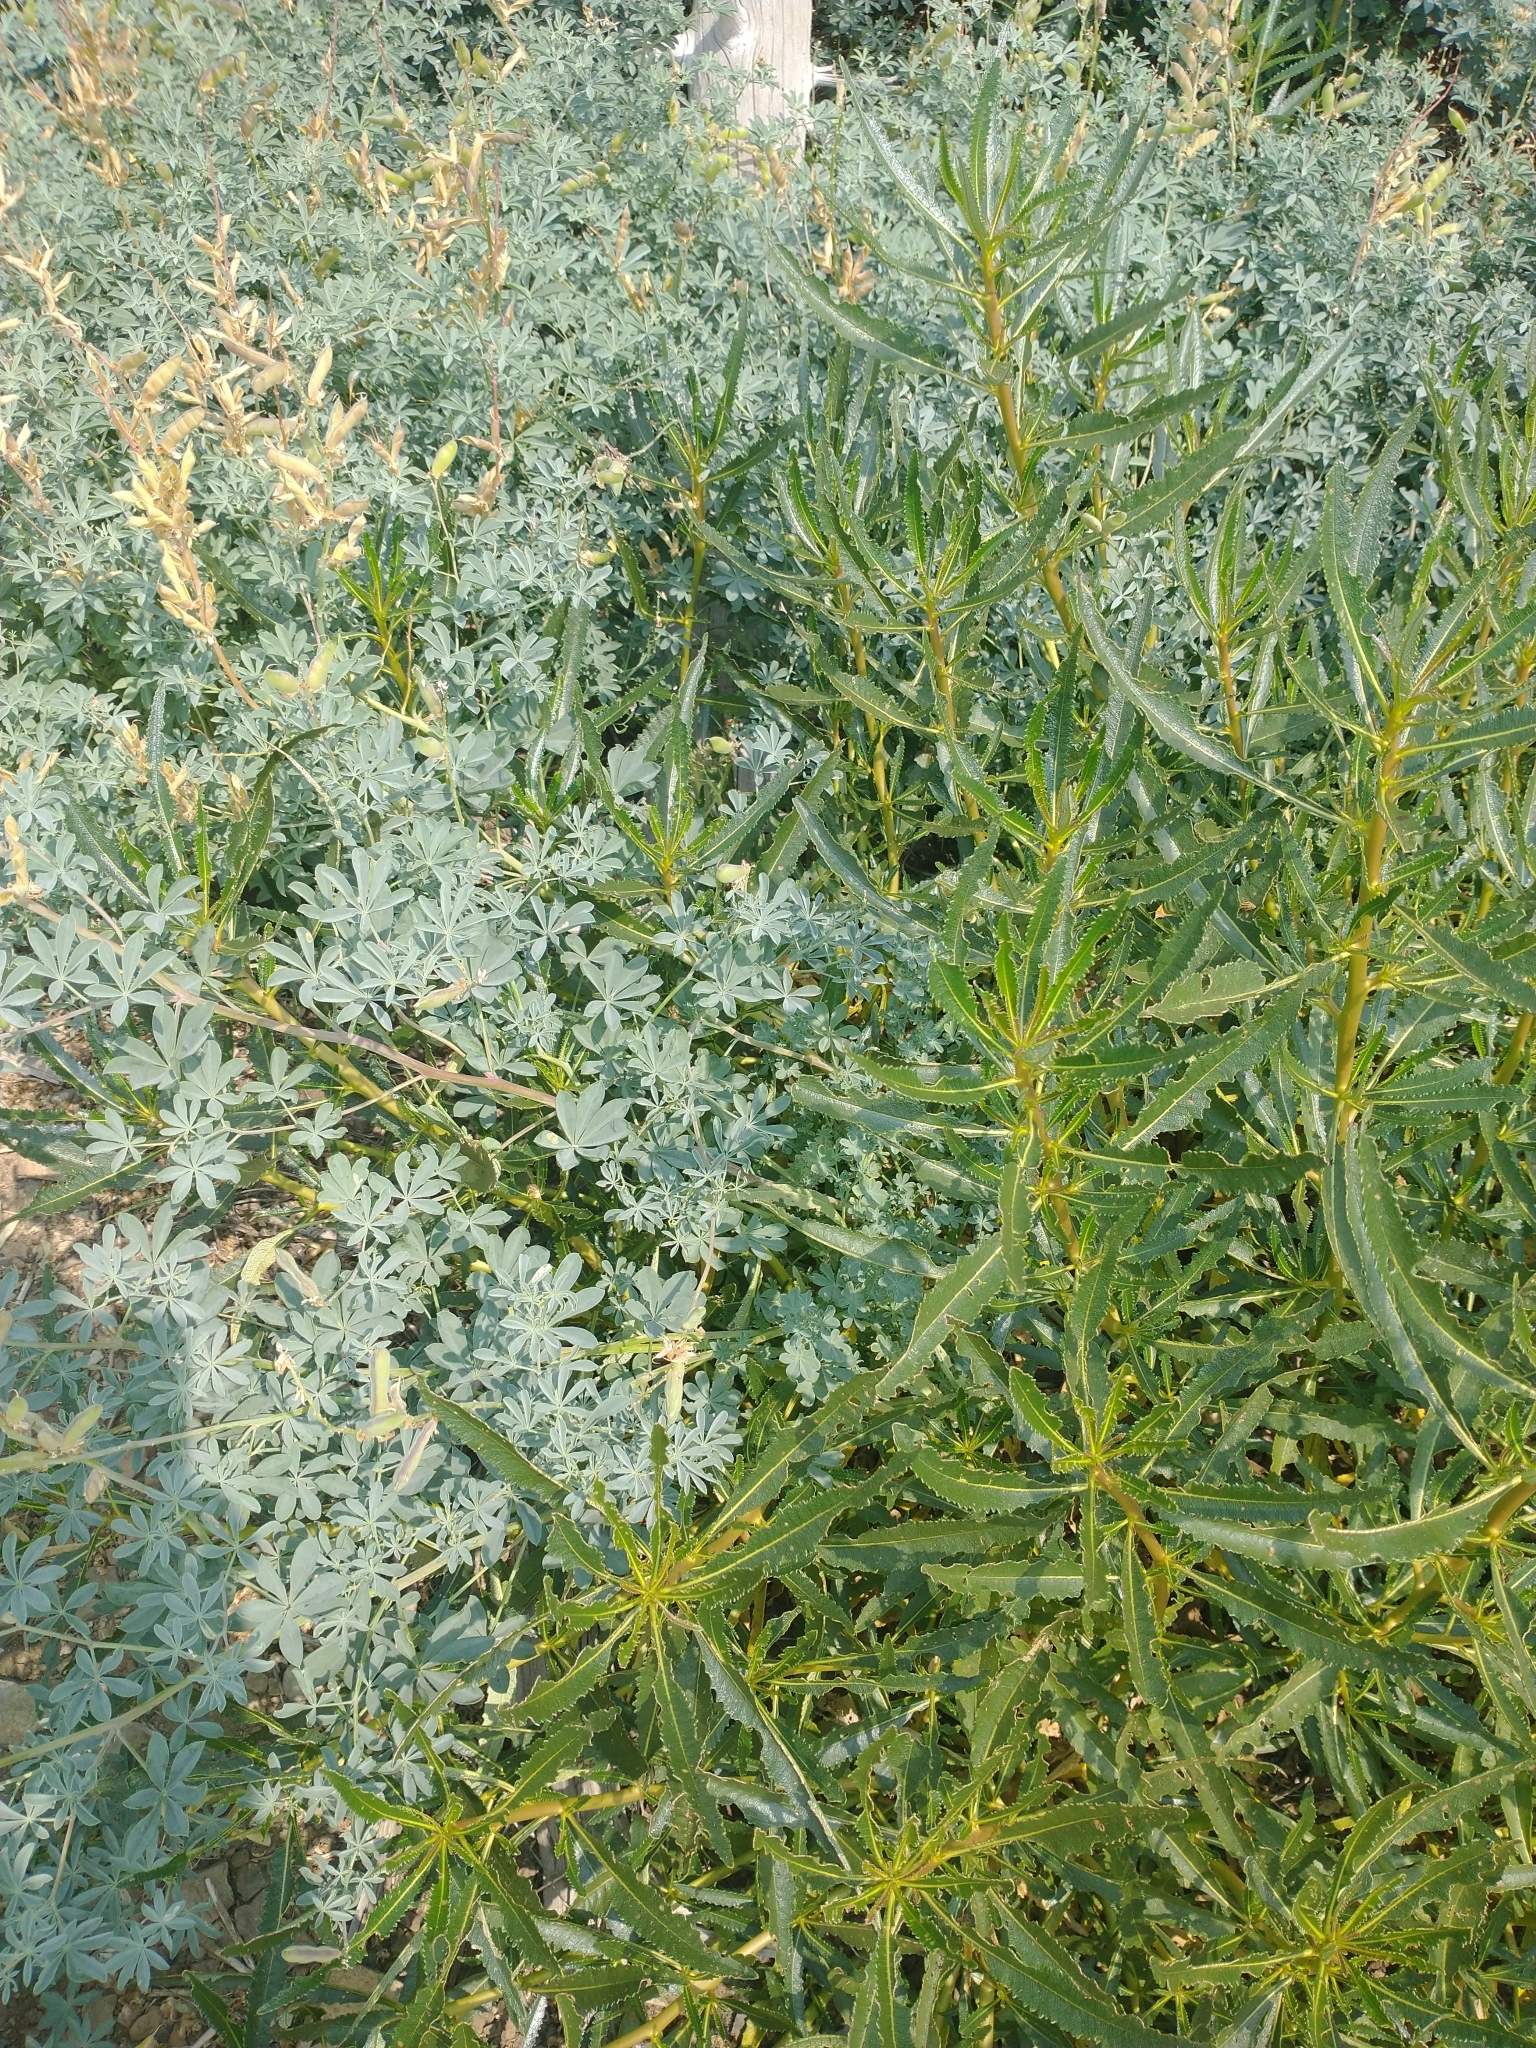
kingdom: Plantae
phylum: Tracheophyta
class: Magnoliopsida
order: Boraginales
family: Namaceae
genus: Eriodictyon
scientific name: Eriodictyon californicum
